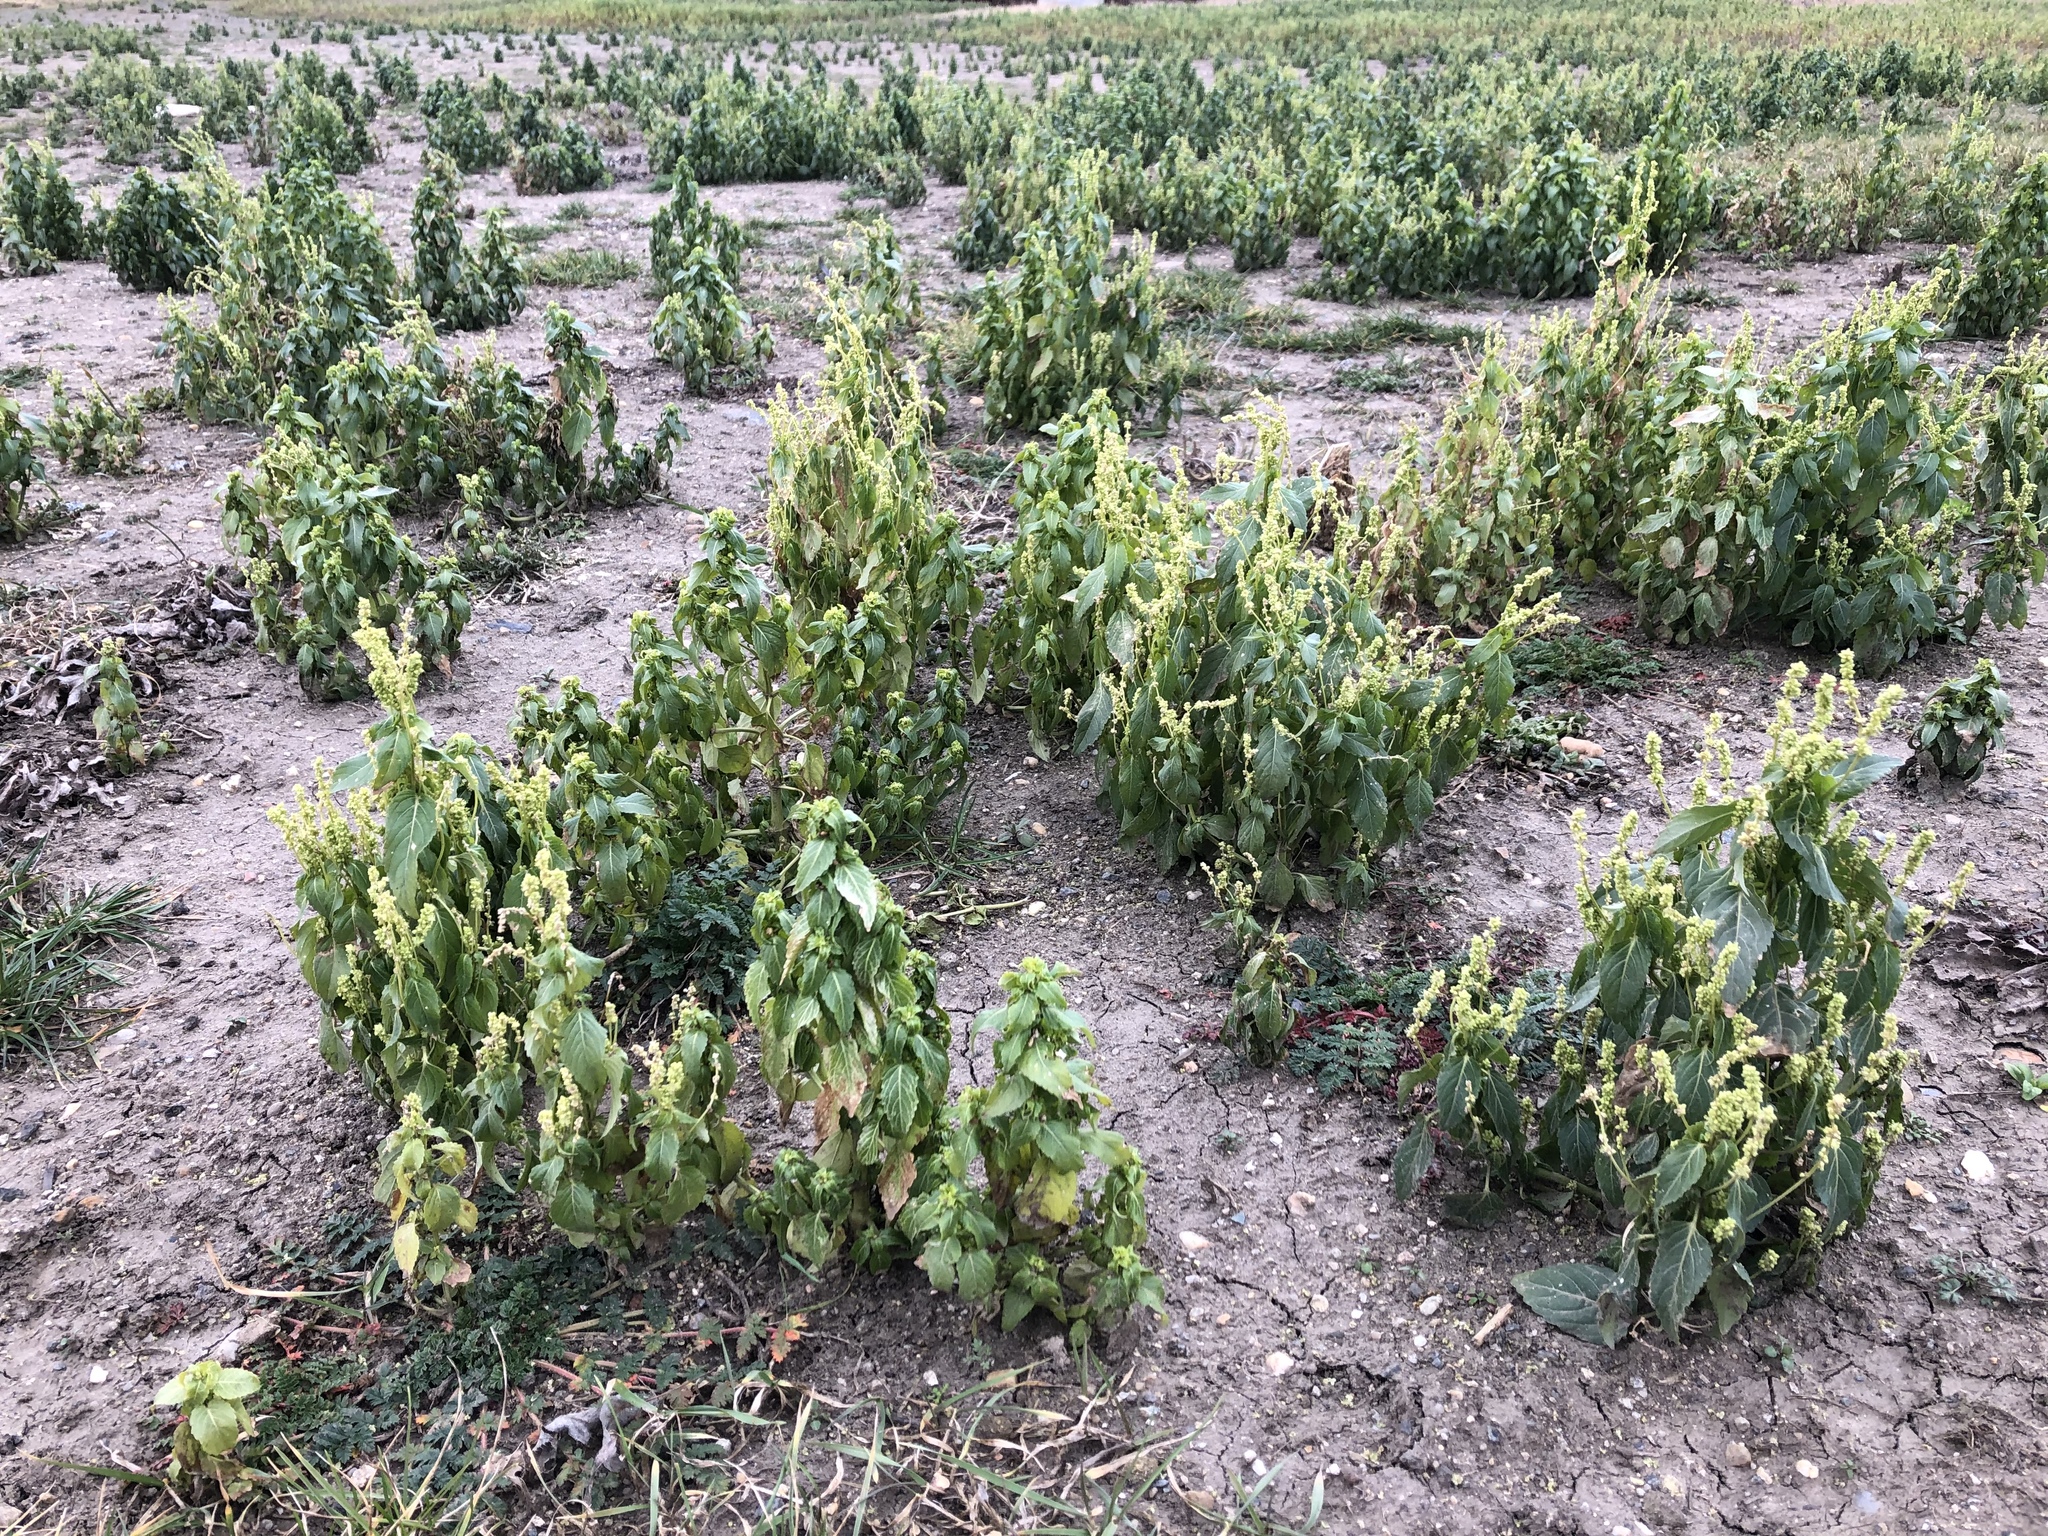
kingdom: Plantae
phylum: Tracheophyta
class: Magnoliopsida
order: Malpighiales
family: Euphorbiaceae
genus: Mercurialis
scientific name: Mercurialis annua
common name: Annual mercury
